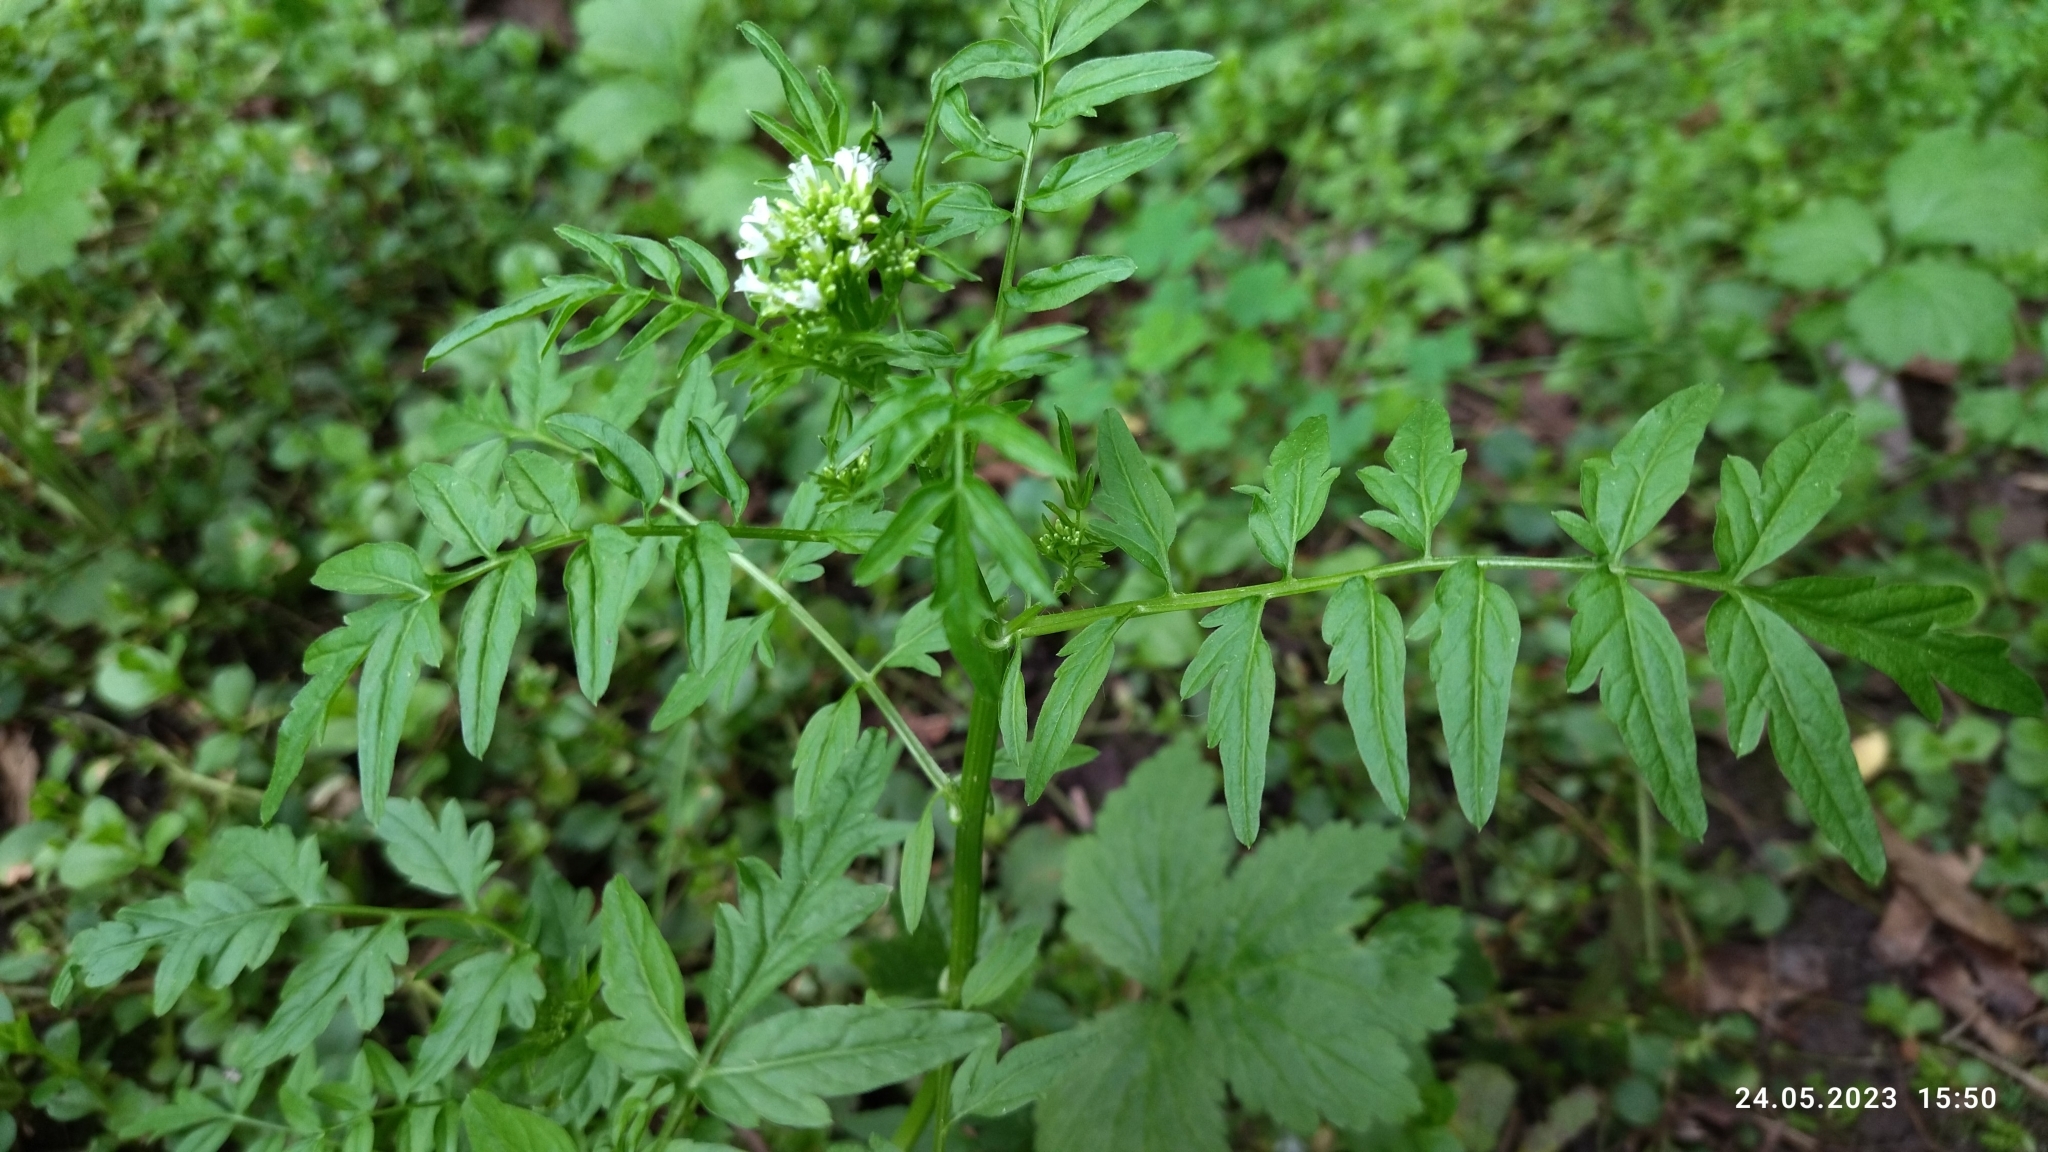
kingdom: Plantae
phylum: Tracheophyta
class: Magnoliopsida
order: Brassicales
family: Brassicaceae
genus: Cardamine
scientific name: Cardamine impatiens
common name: Narrow-leaved bitter-cress
